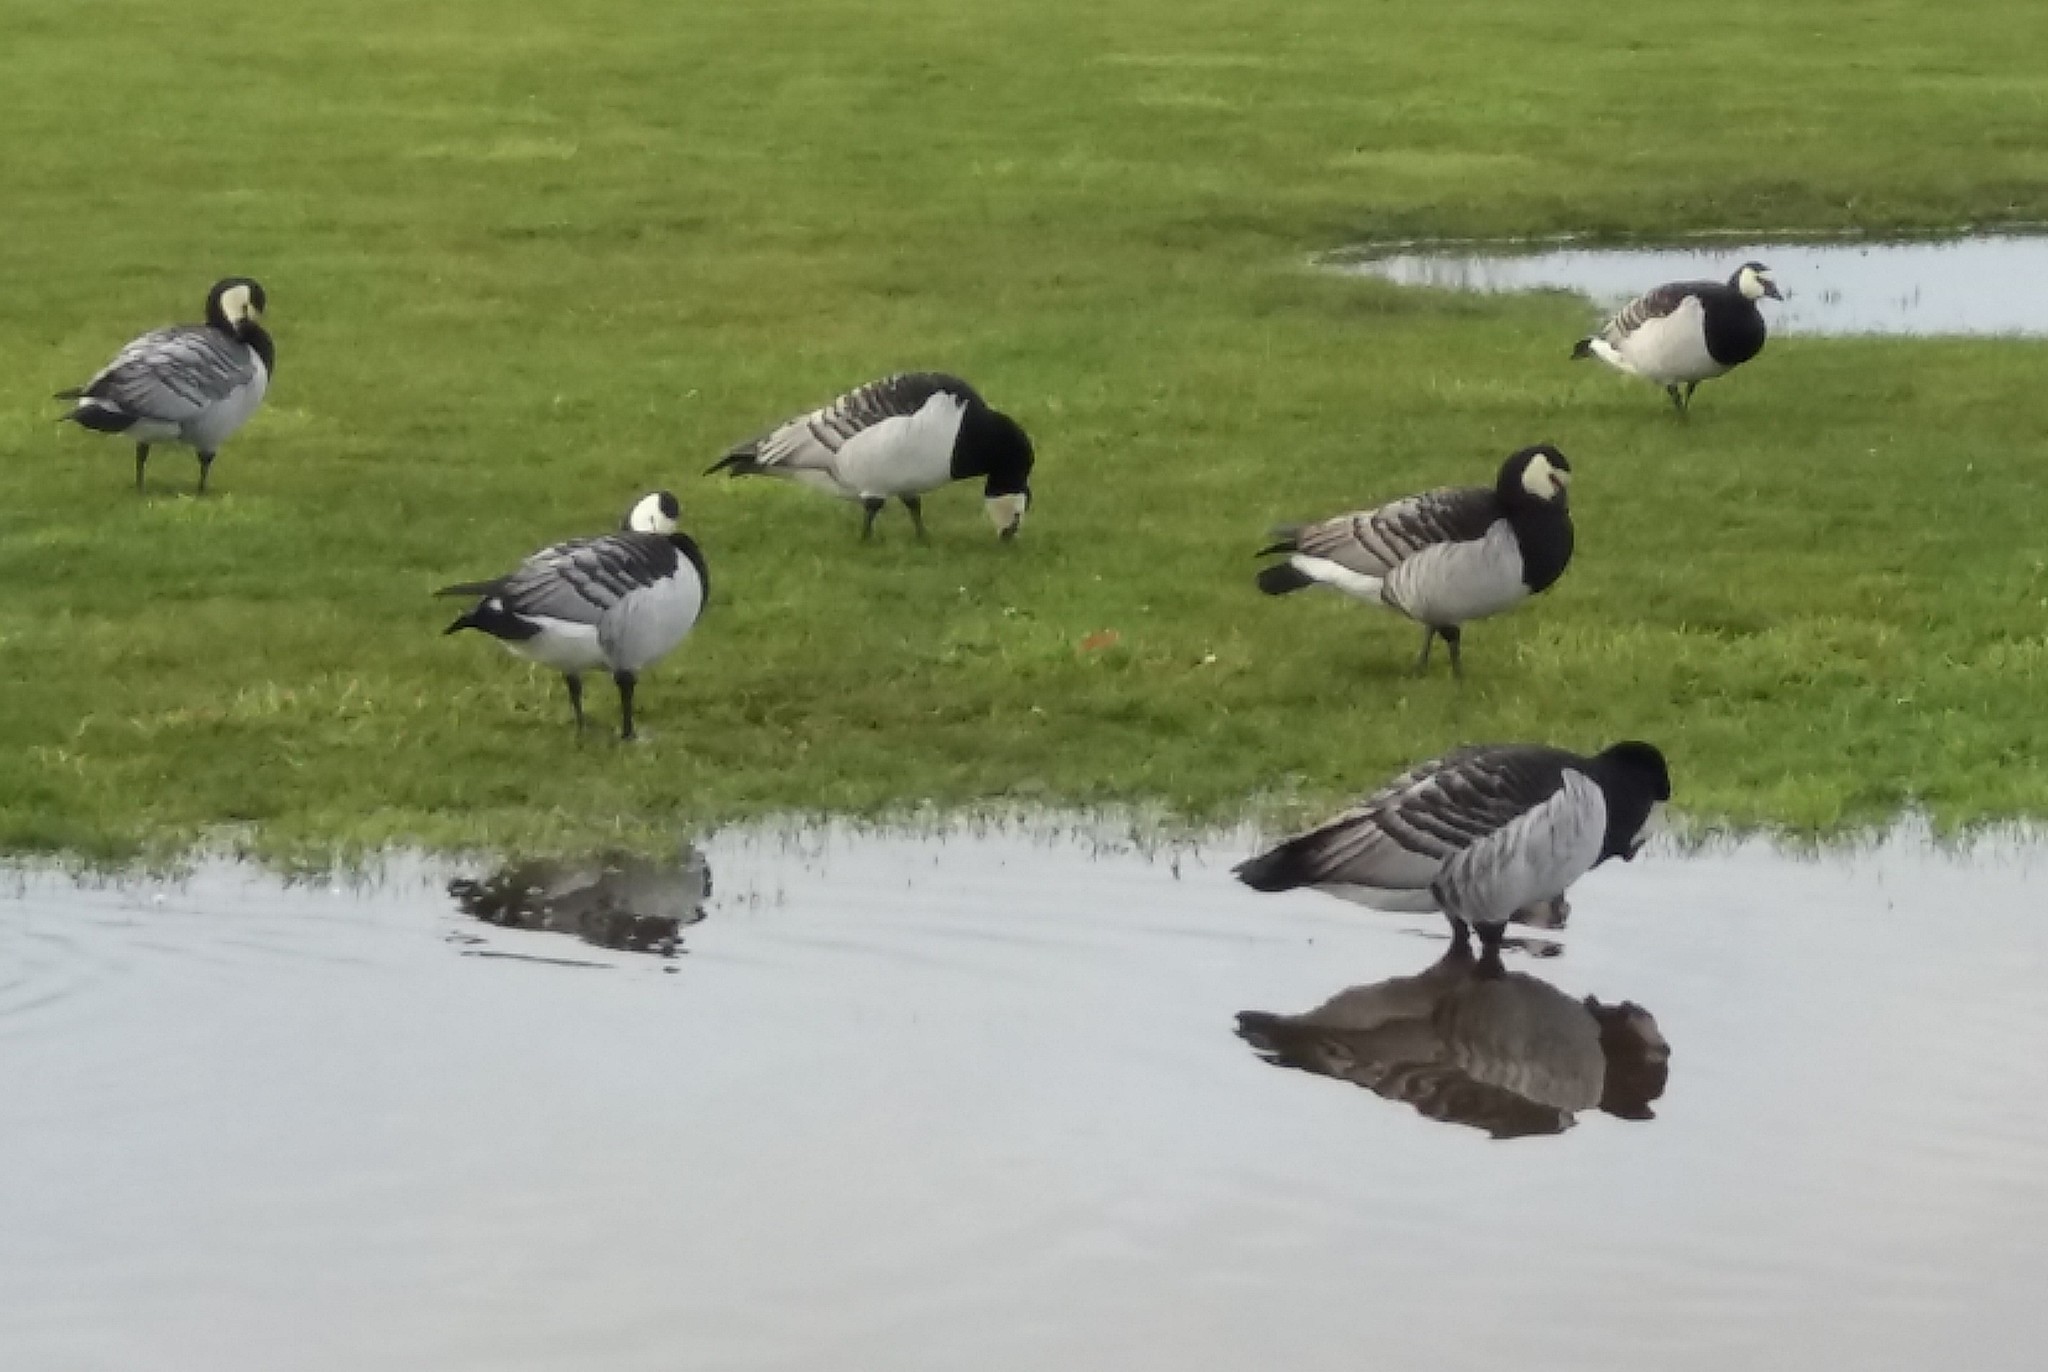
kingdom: Animalia
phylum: Chordata
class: Aves
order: Anseriformes
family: Anatidae
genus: Branta
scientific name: Branta leucopsis
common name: Barnacle goose
